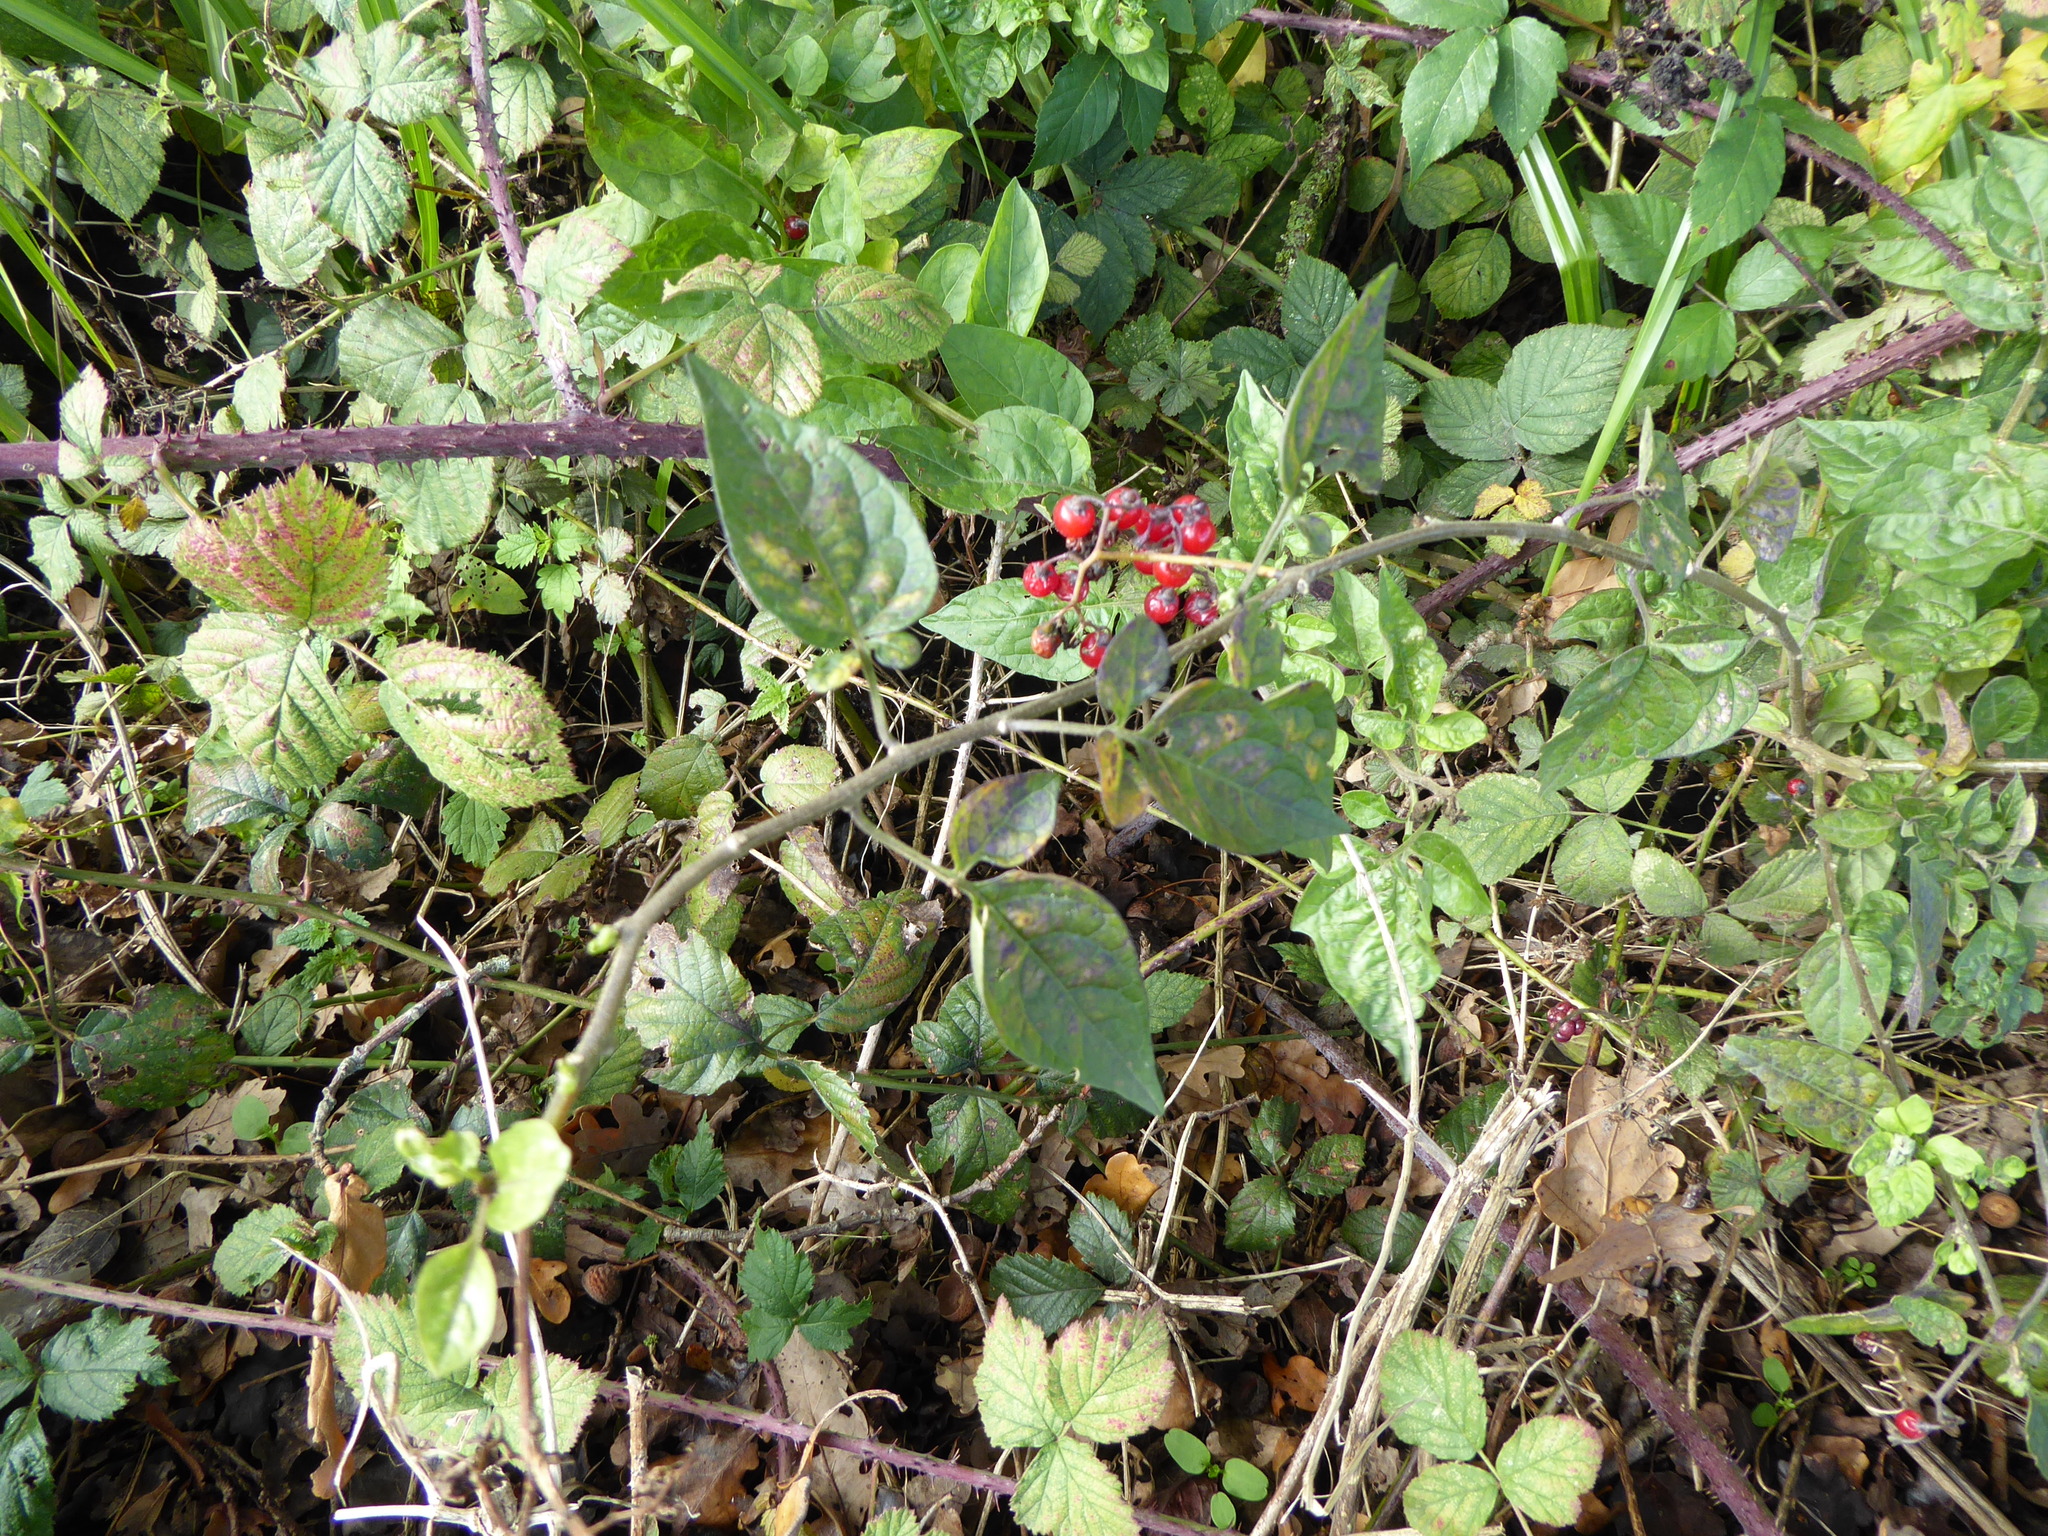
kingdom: Plantae
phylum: Tracheophyta
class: Magnoliopsida
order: Solanales
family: Solanaceae
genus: Solanum
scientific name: Solanum dulcamara
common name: Climbing nightshade
